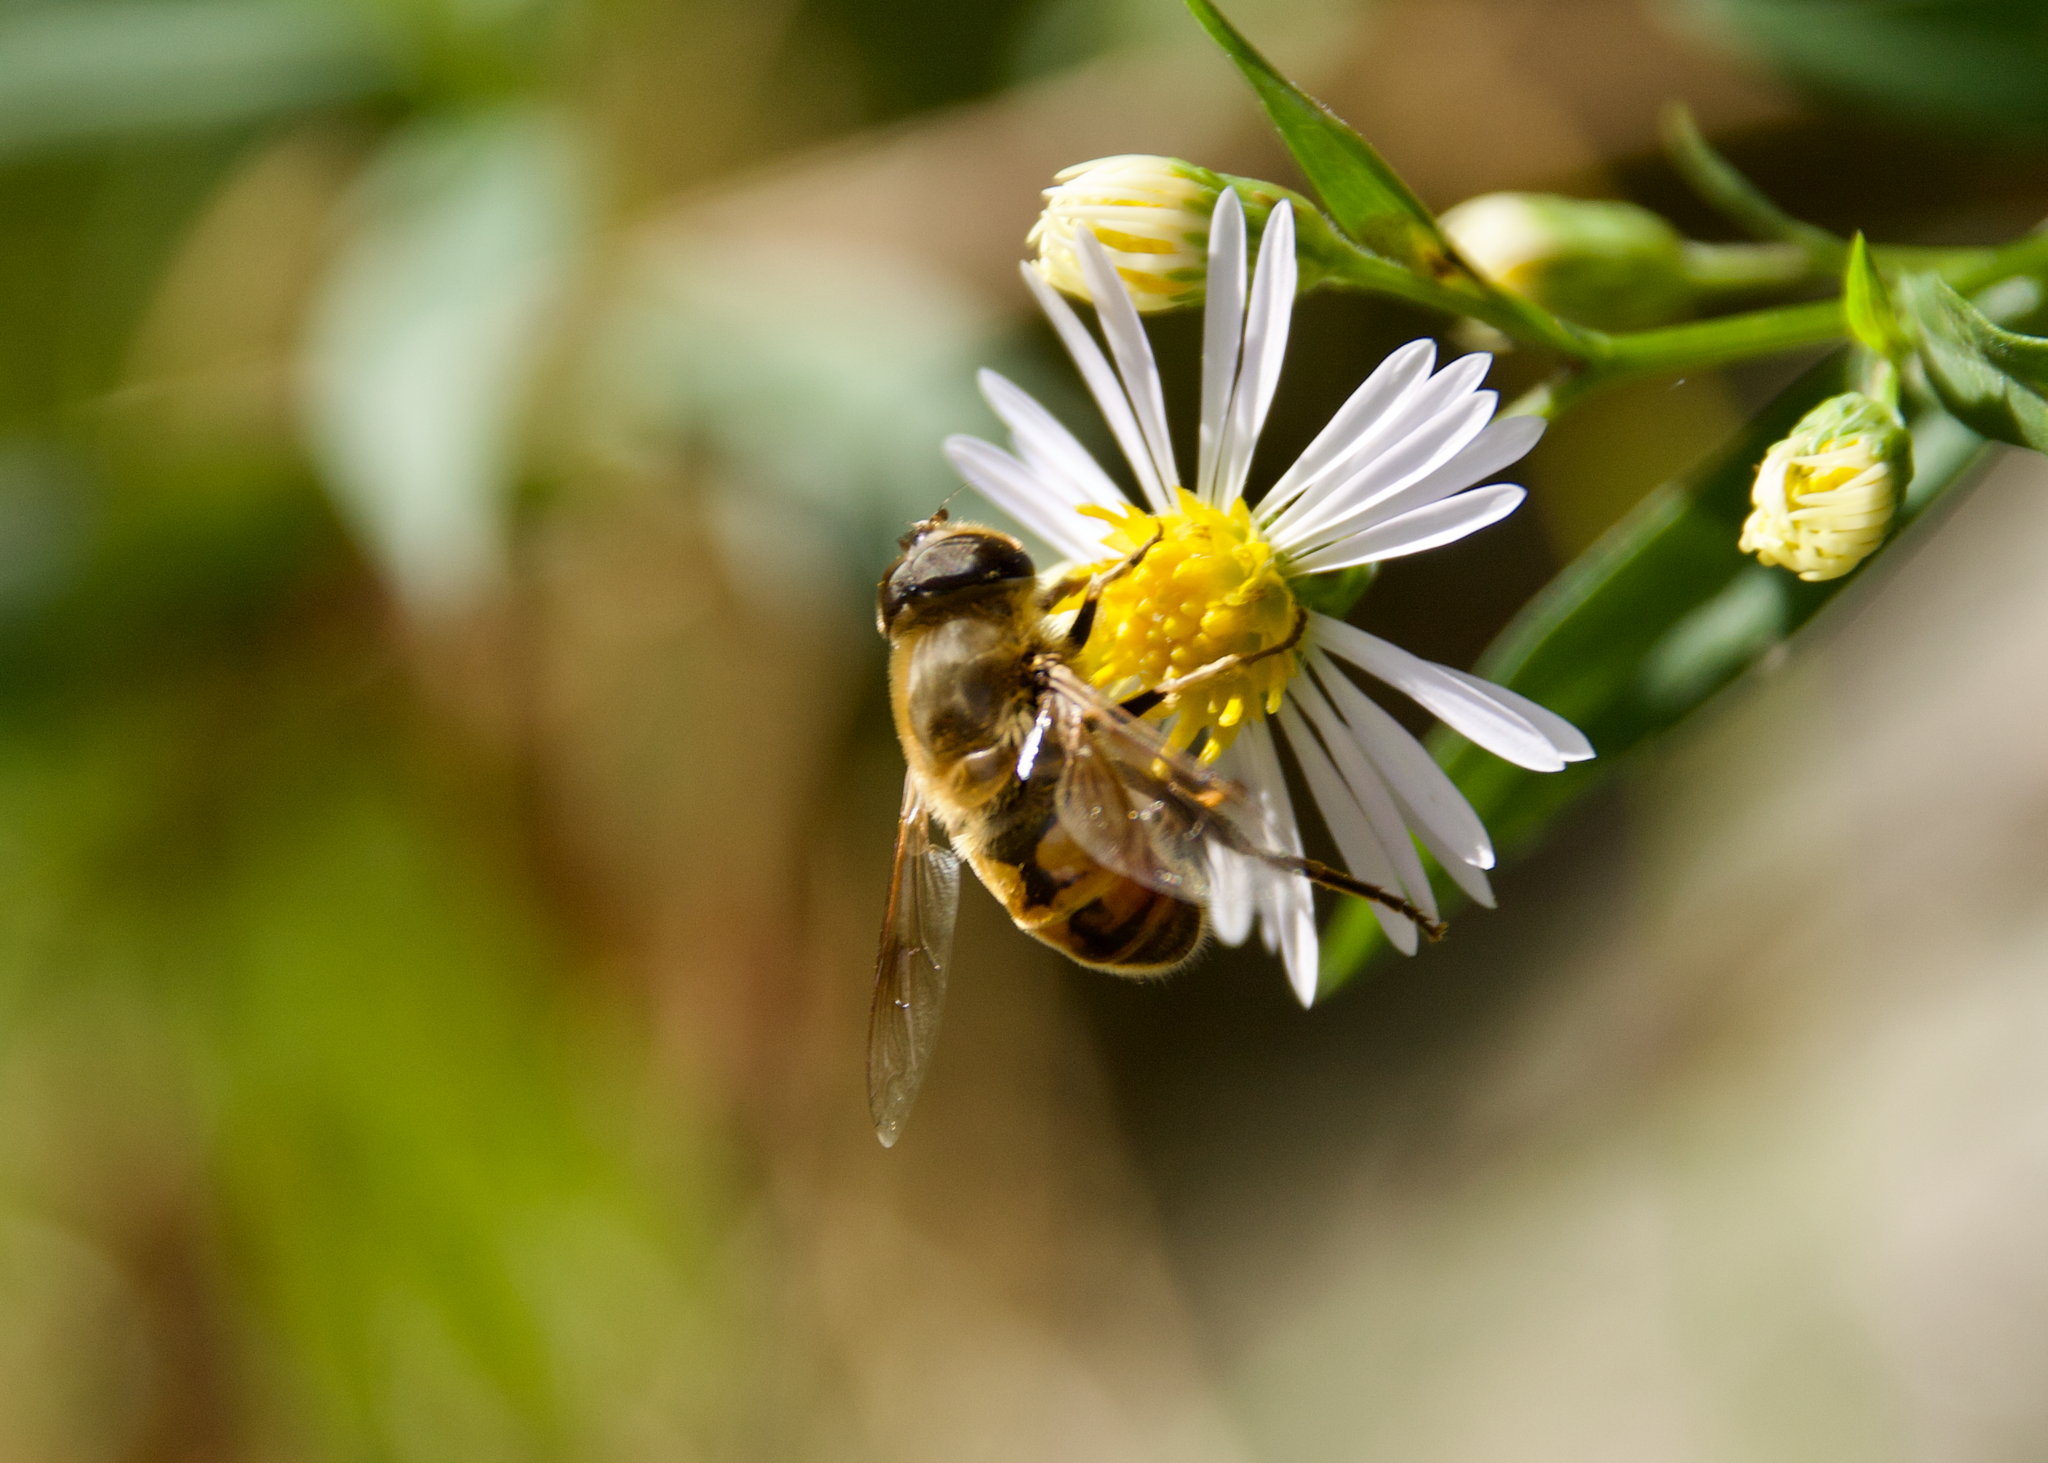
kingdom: Animalia
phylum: Arthropoda
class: Insecta
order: Diptera
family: Syrphidae
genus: Eristalis
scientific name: Eristalis tenax
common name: Drone fly
